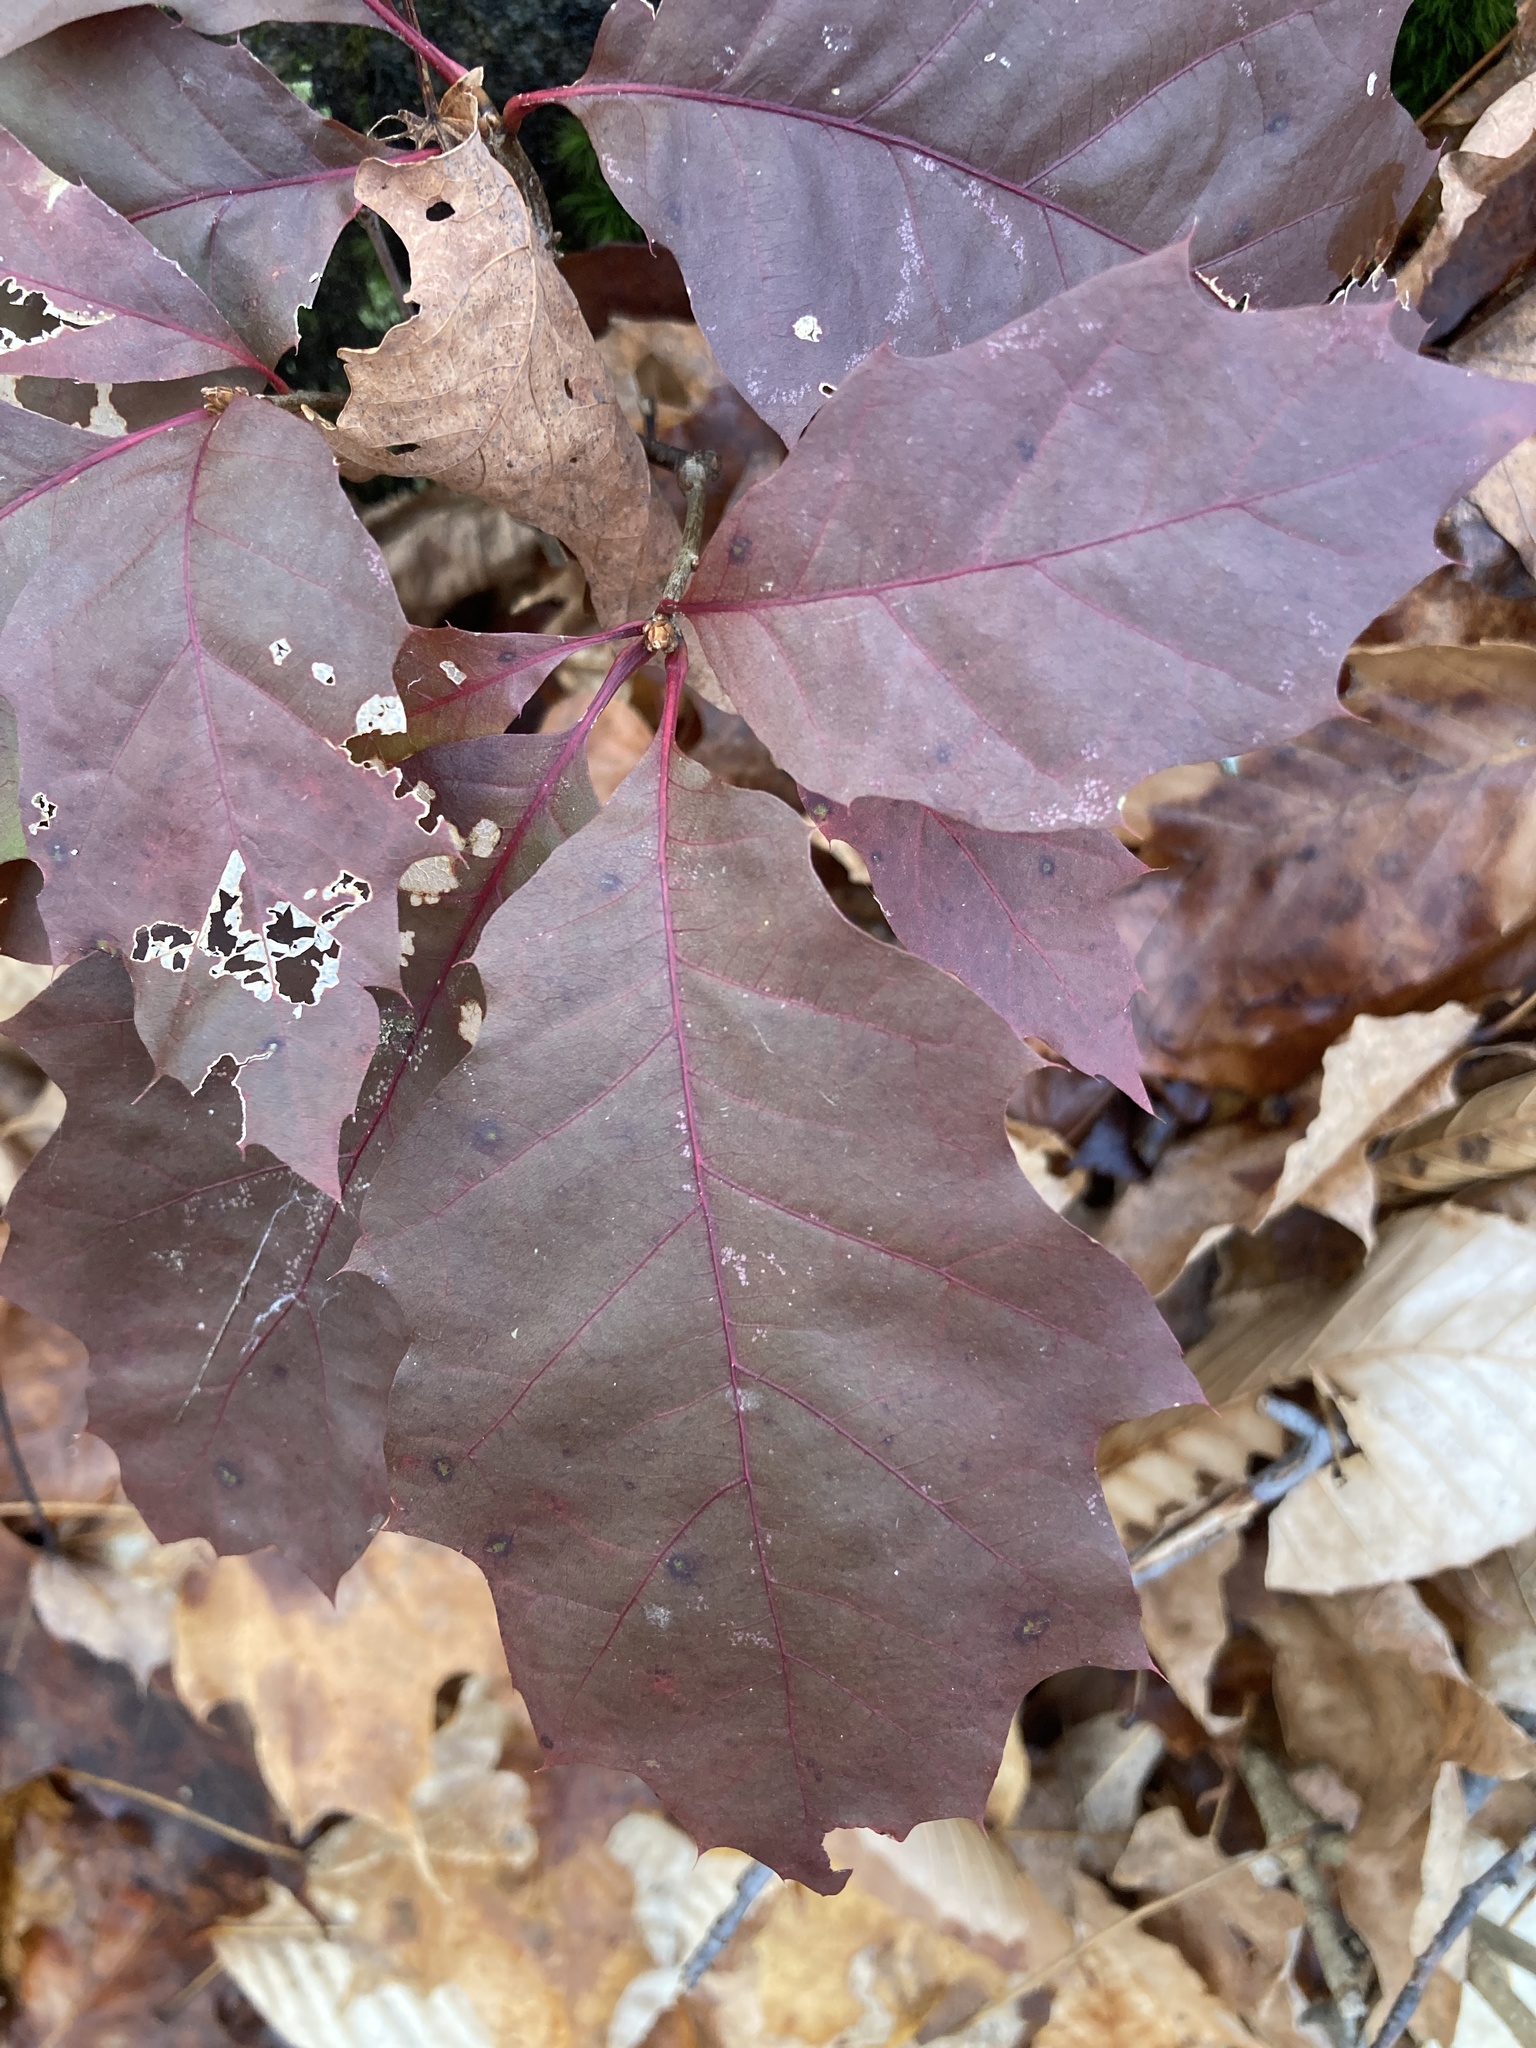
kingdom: Plantae
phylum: Tracheophyta
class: Magnoliopsida
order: Fagales
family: Fagaceae
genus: Quercus
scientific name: Quercus rubra
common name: Red oak
